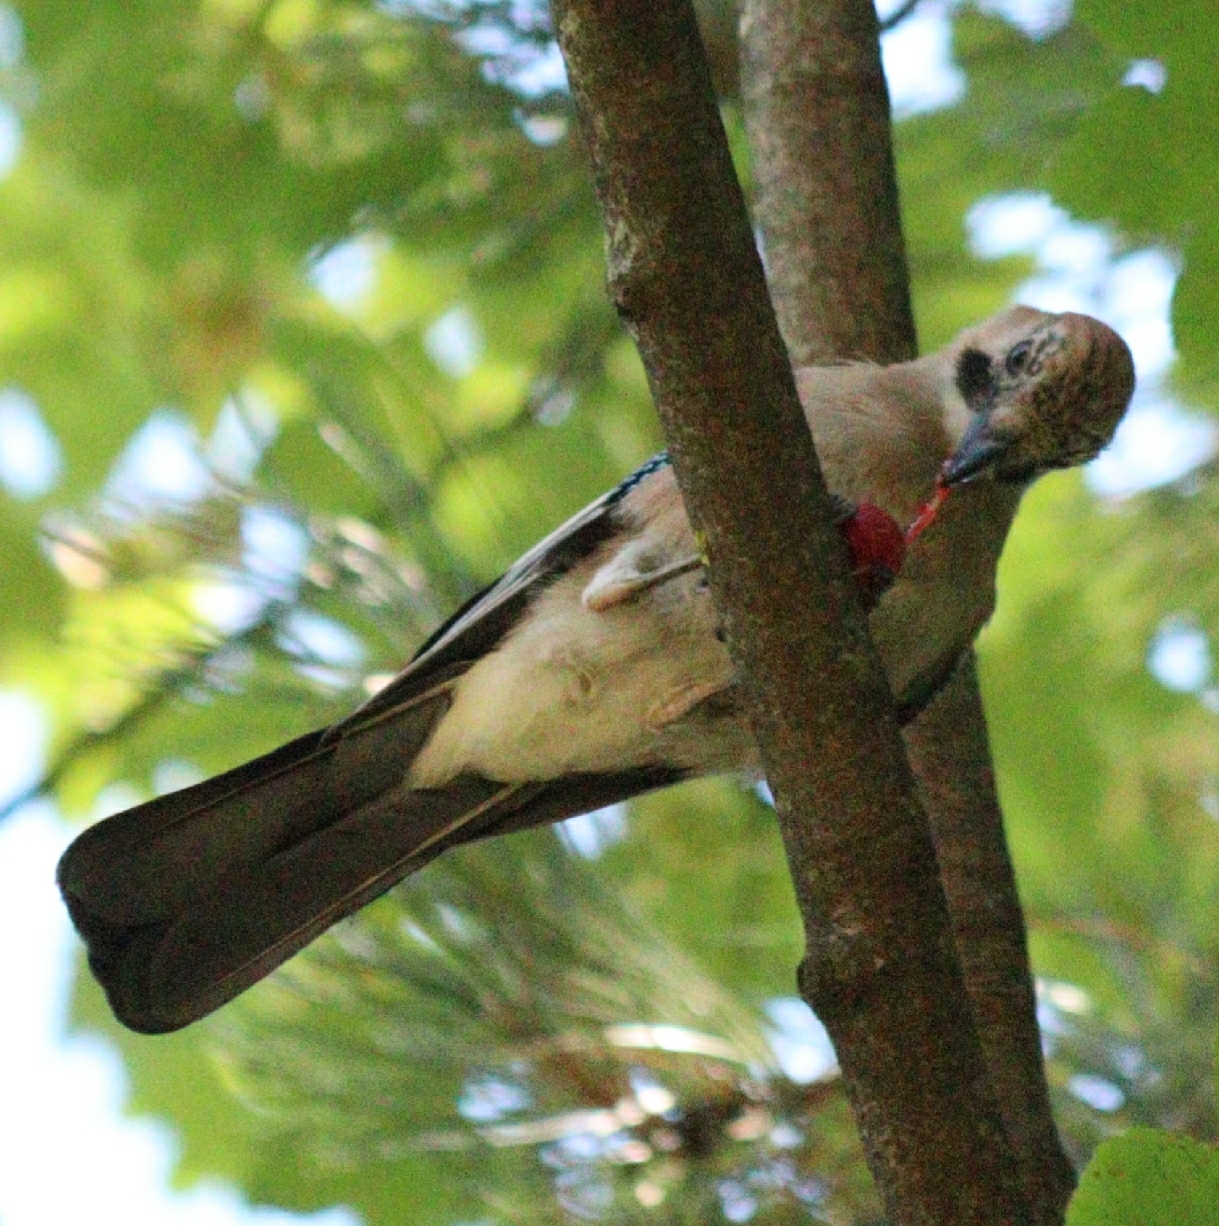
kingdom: Animalia
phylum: Chordata
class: Aves
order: Passeriformes
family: Corvidae
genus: Garrulus
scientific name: Garrulus glandarius
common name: Eurasian jay
